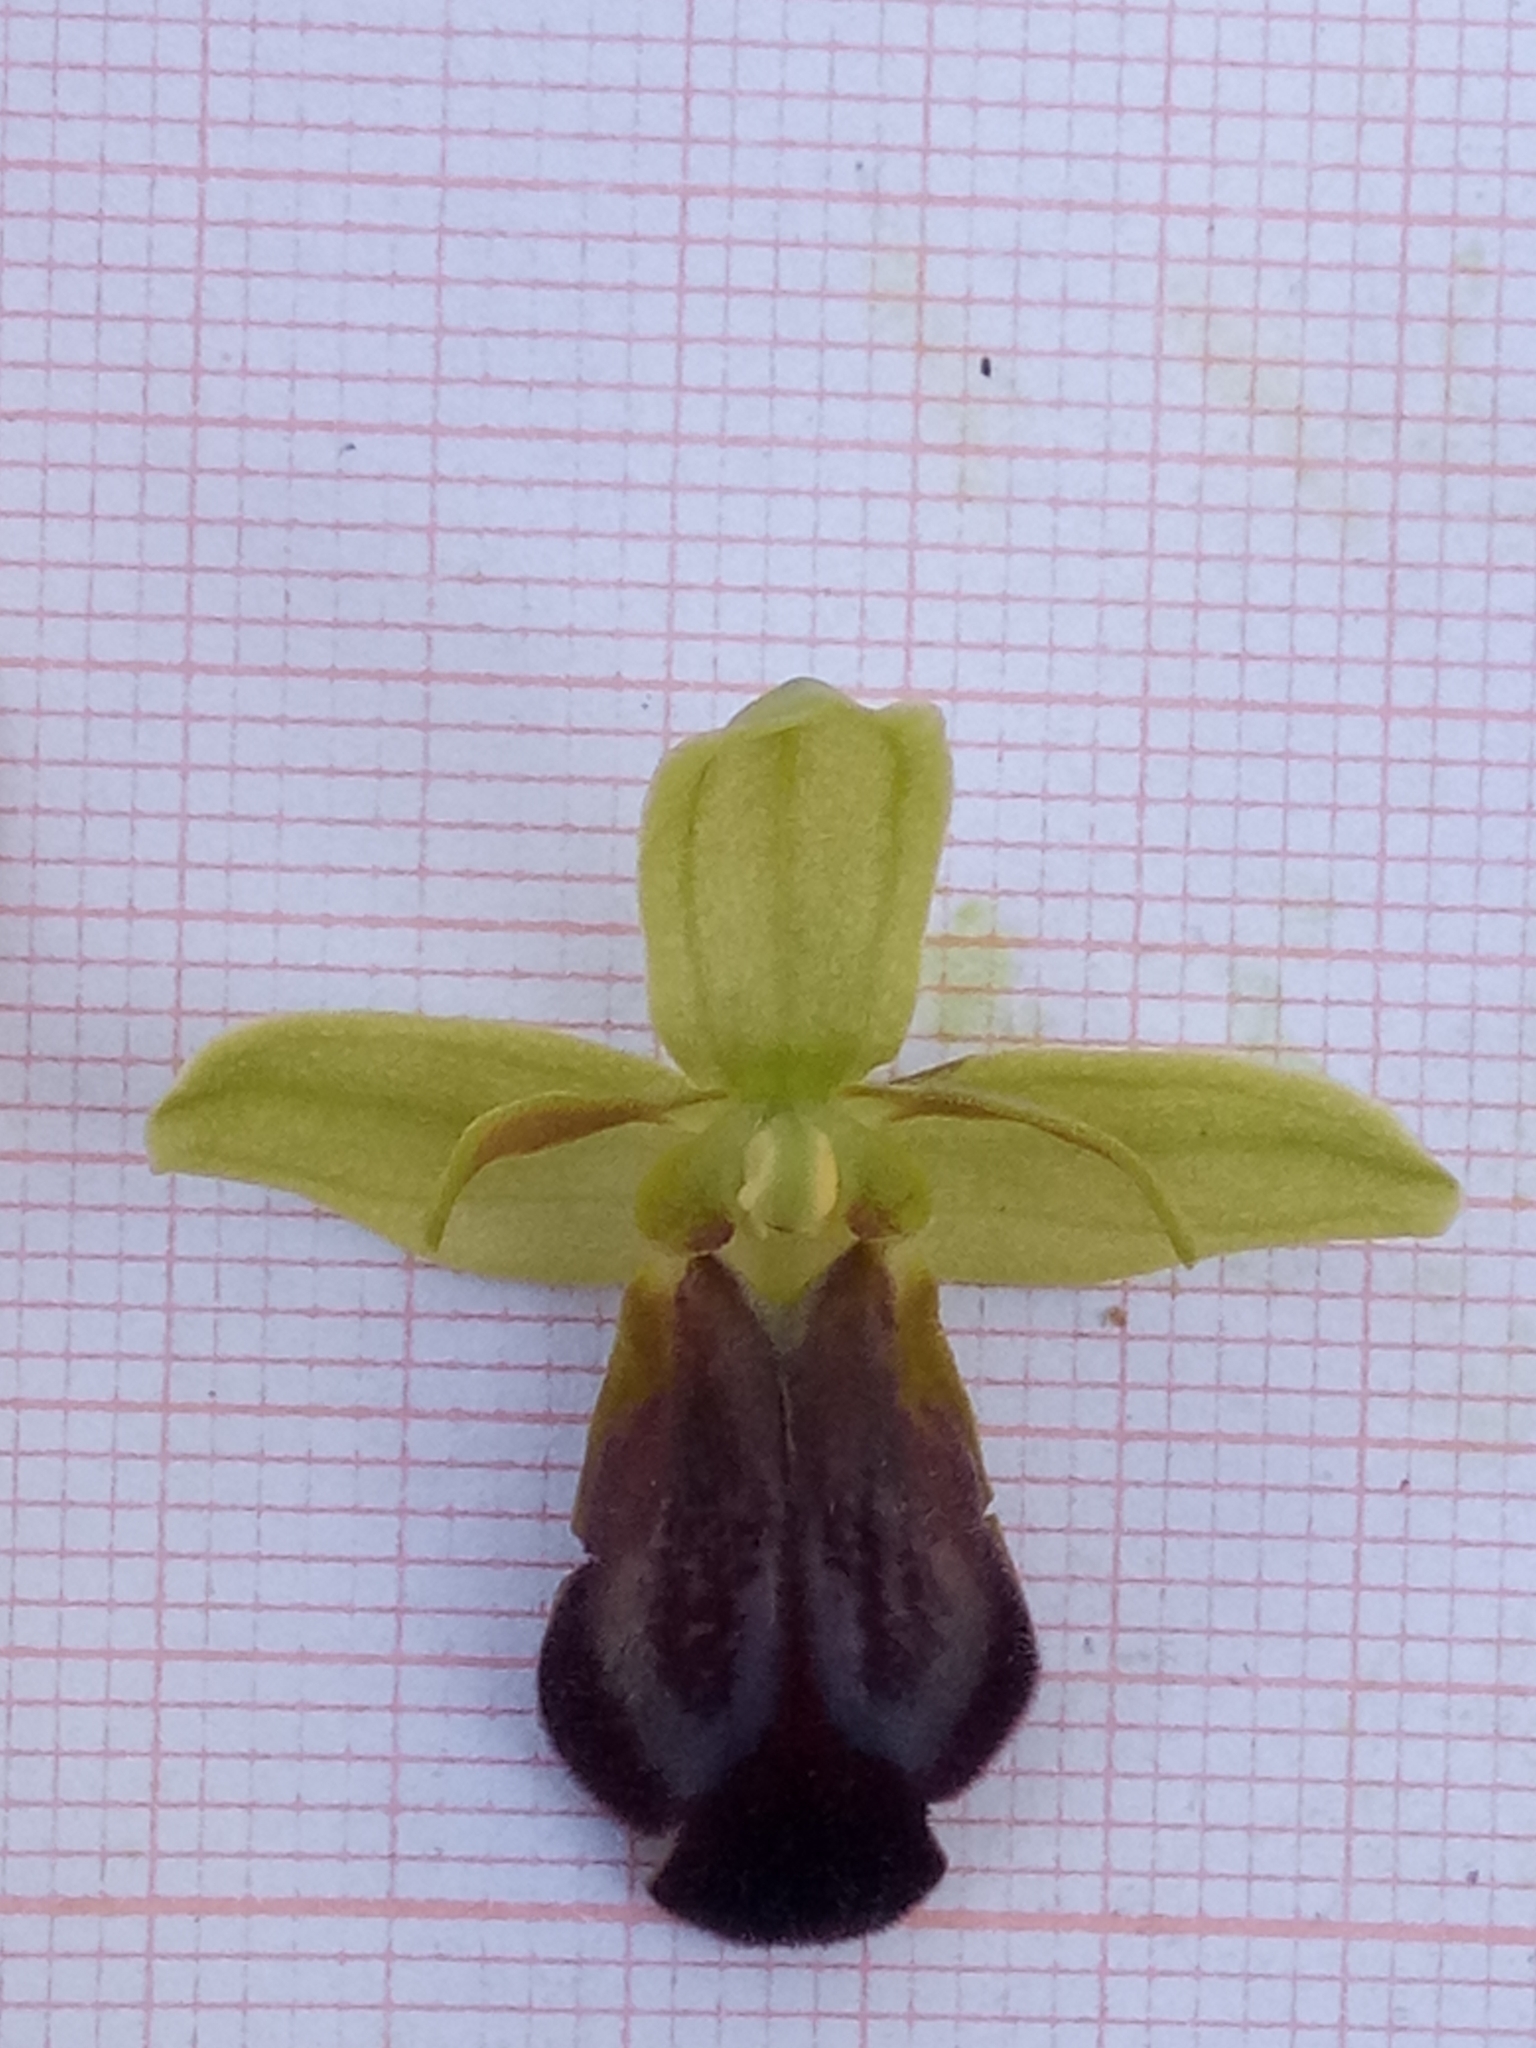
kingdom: Plantae
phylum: Tracheophyta
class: Liliopsida
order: Asparagales
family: Orchidaceae
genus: Ophrys
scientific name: Ophrys fusca
